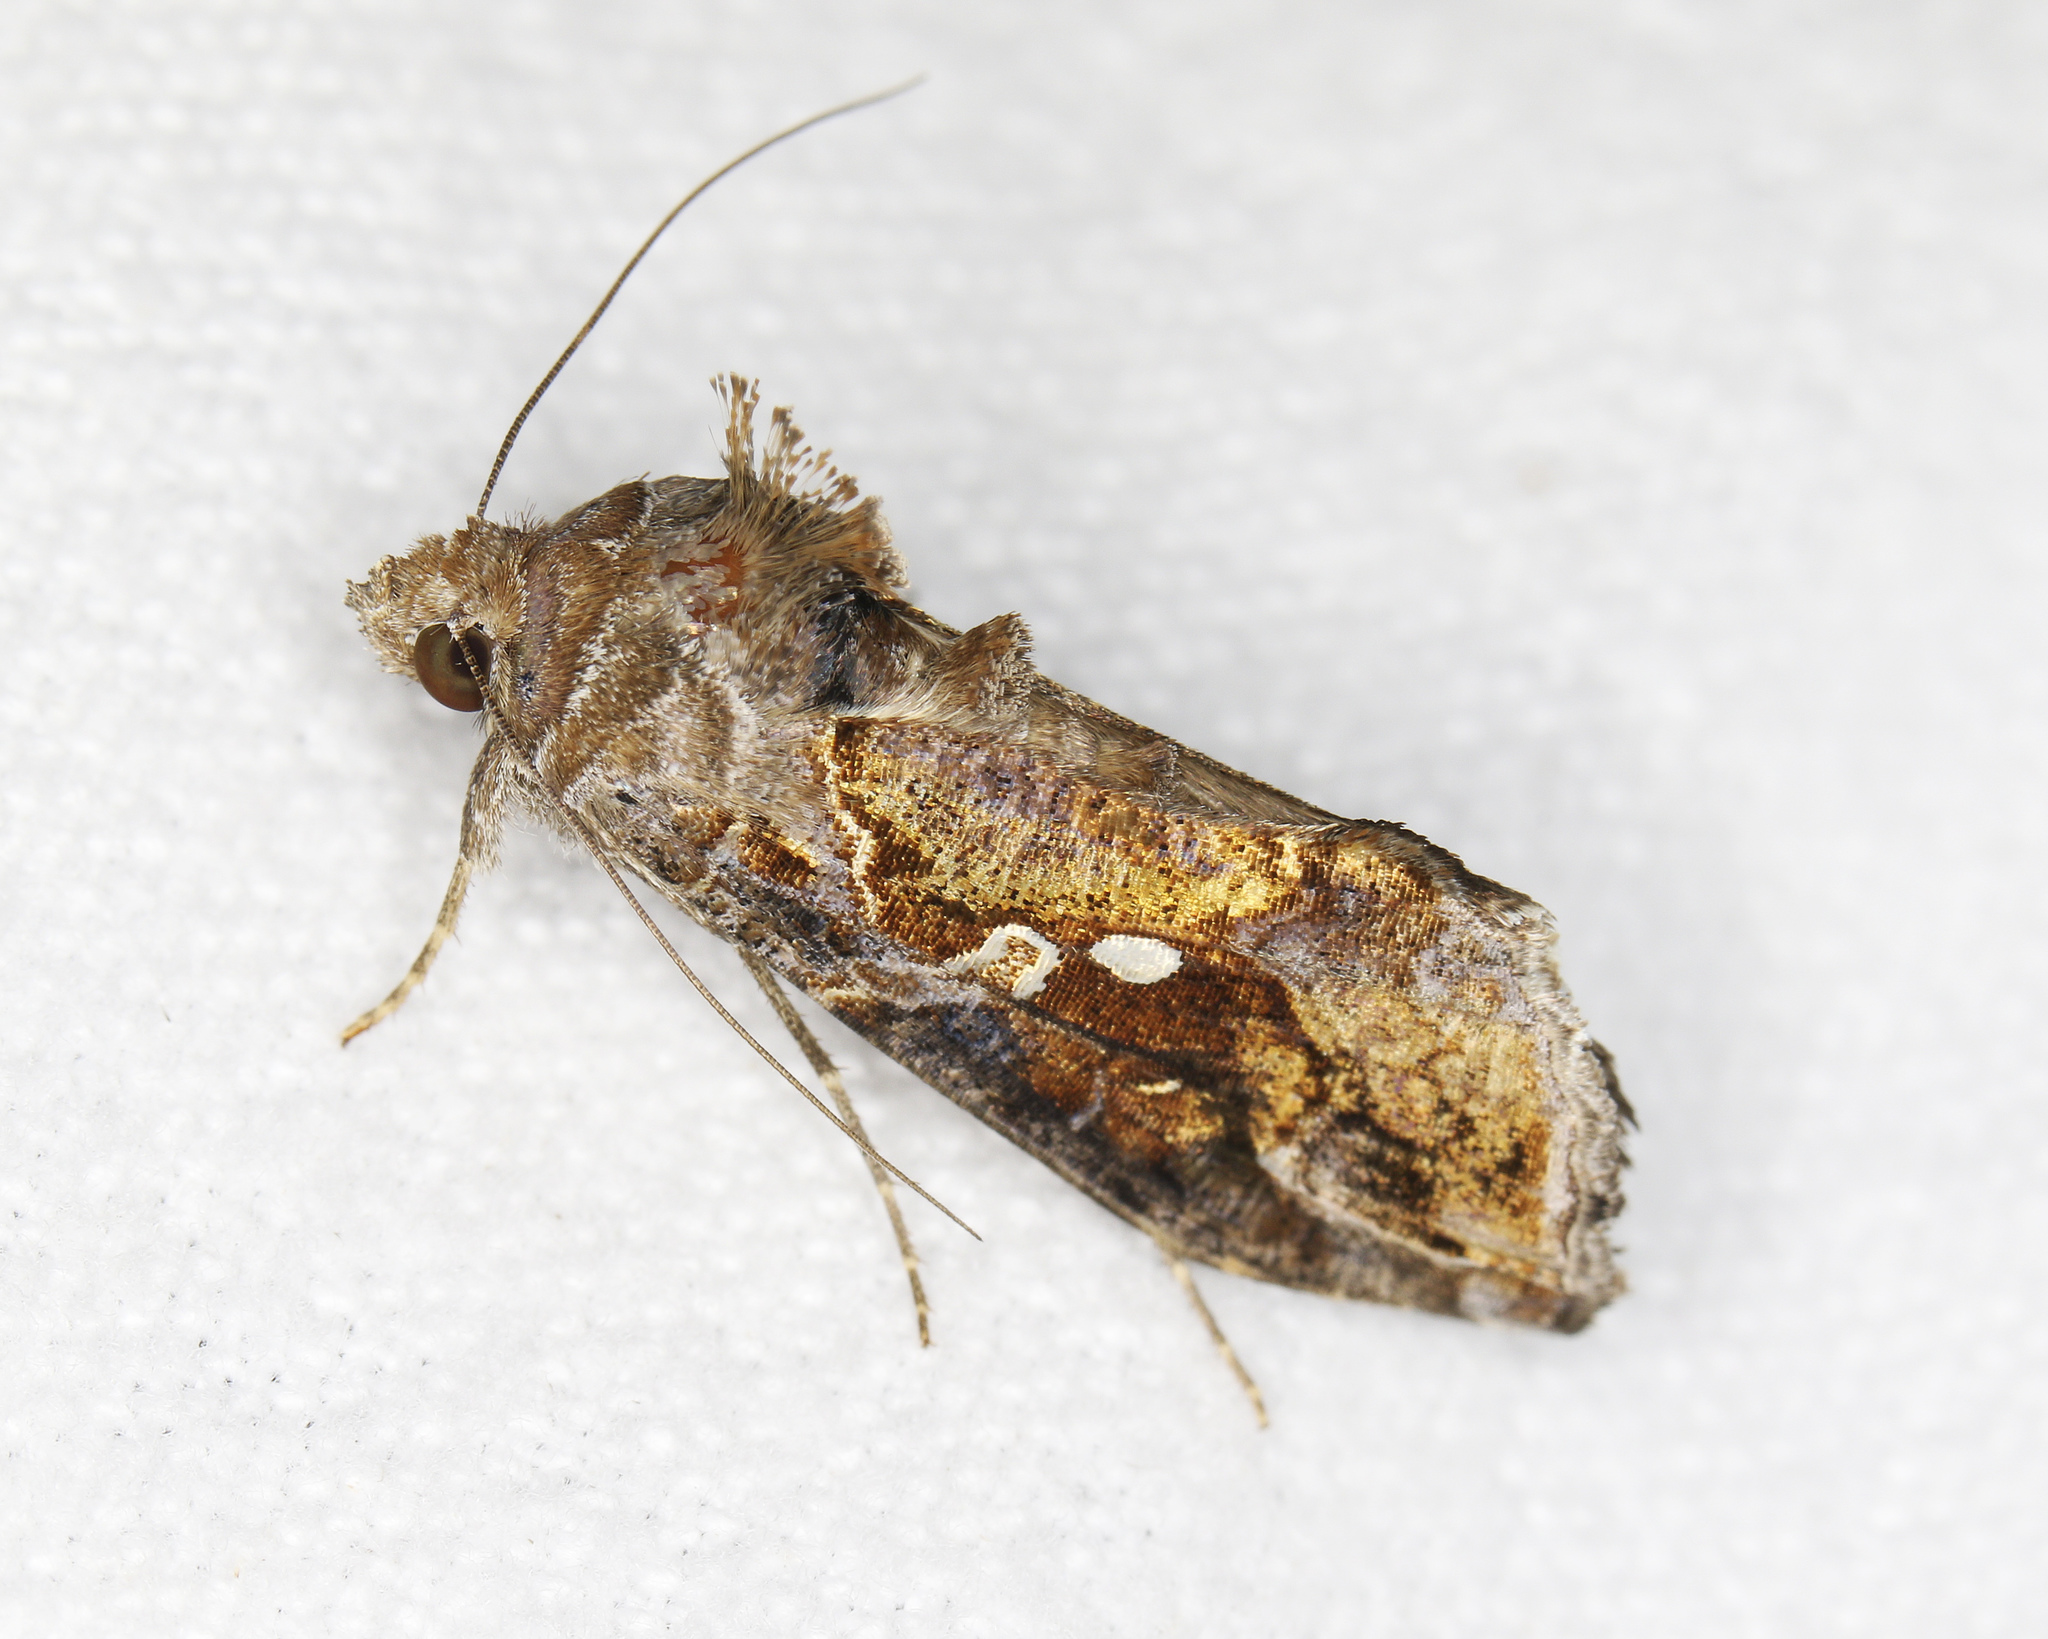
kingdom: Animalia
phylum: Arthropoda
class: Insecta
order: Lepidoptera
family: Noctuidae
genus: Chrysodeixis
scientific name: Chrysodeixis includens
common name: Cutworm moth
